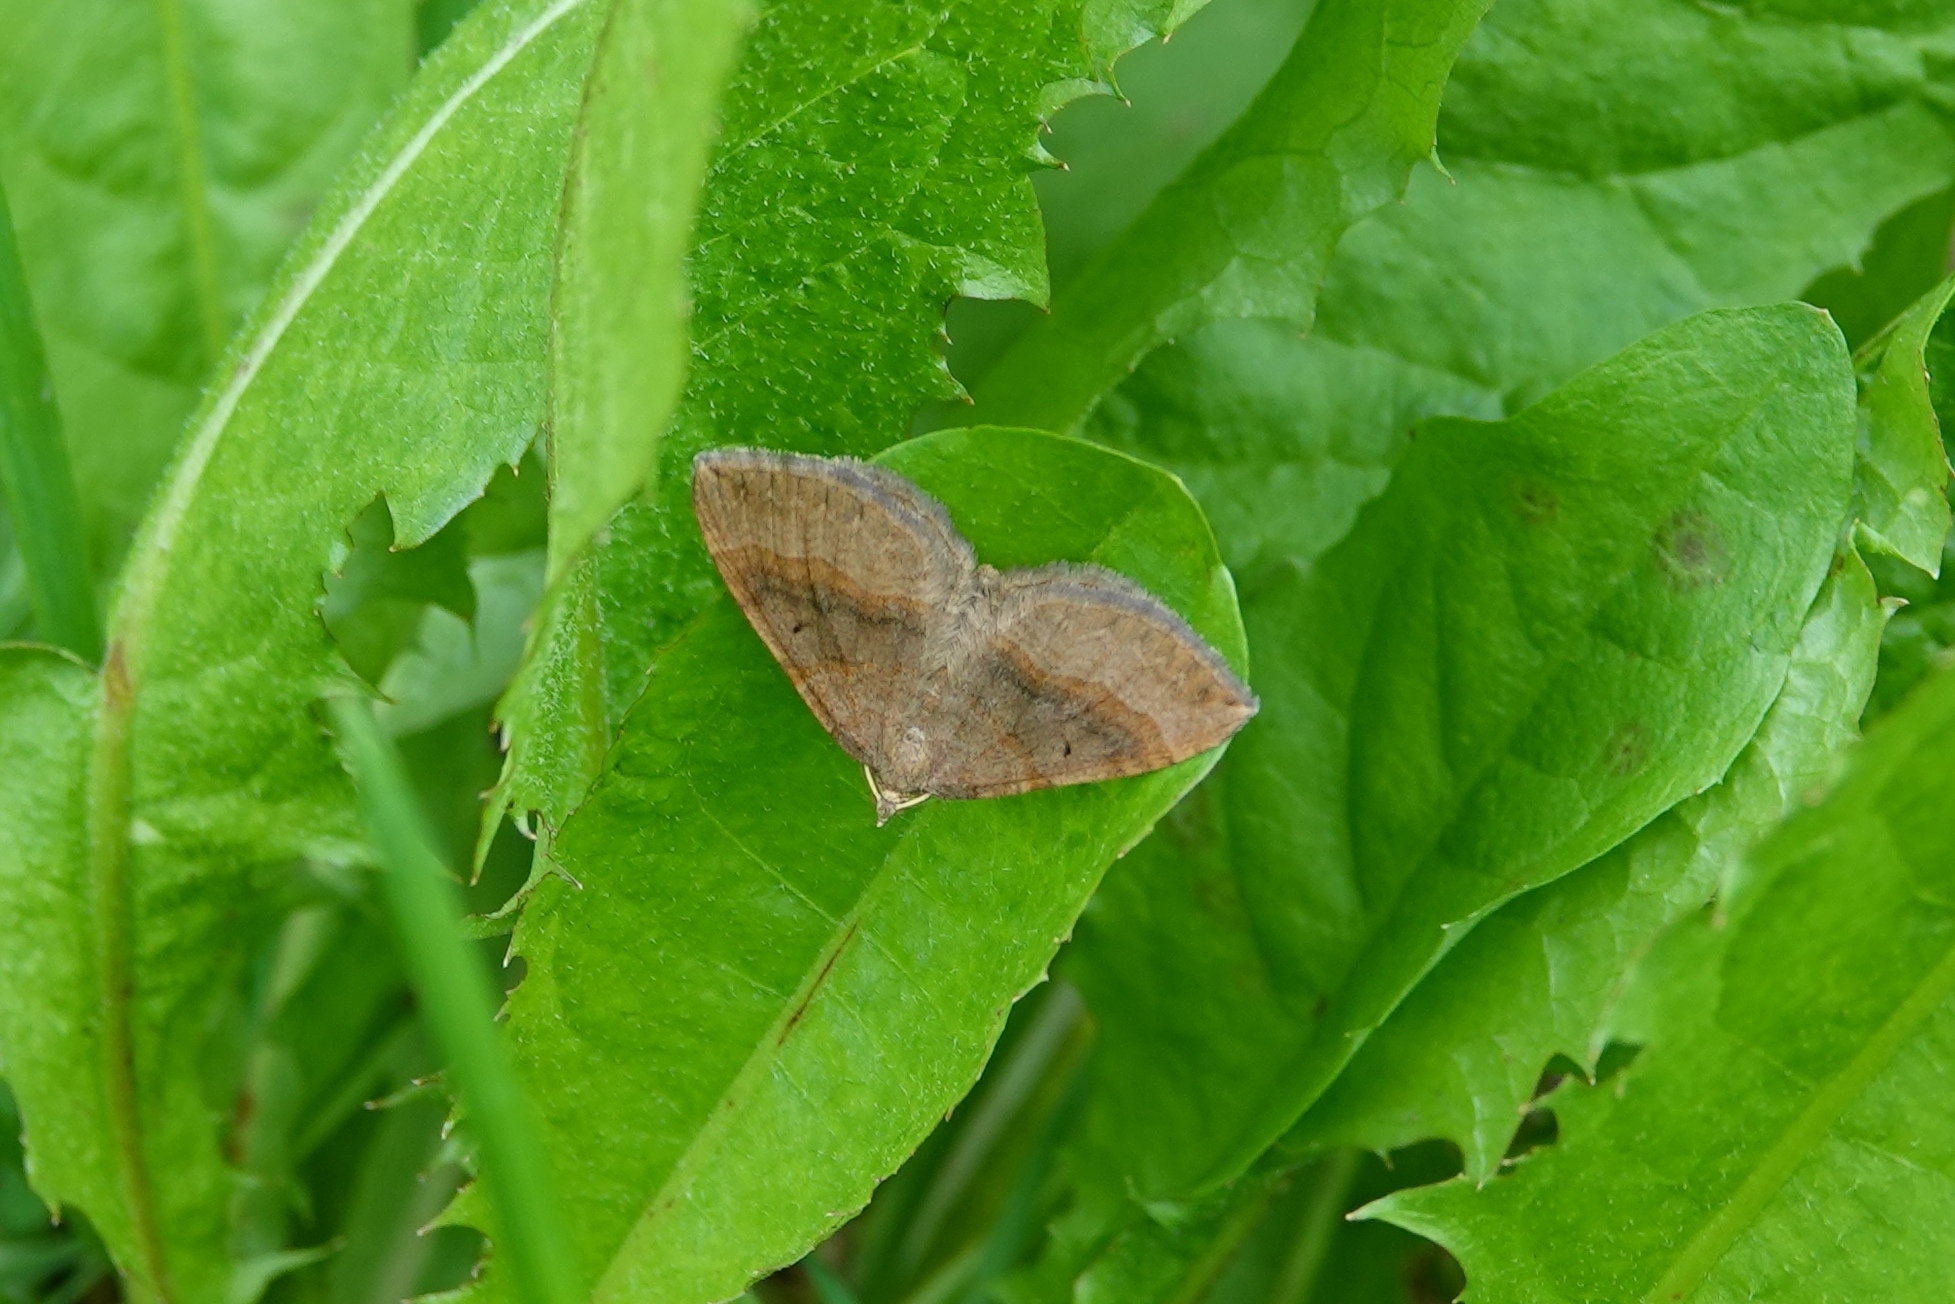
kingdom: Animalia
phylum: Arthropoda
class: Insecta
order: Lepidoptera
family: Geometridae
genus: Scotopteryx
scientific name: Scotopteryx chenopodiata
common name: Shaded broad-bar
